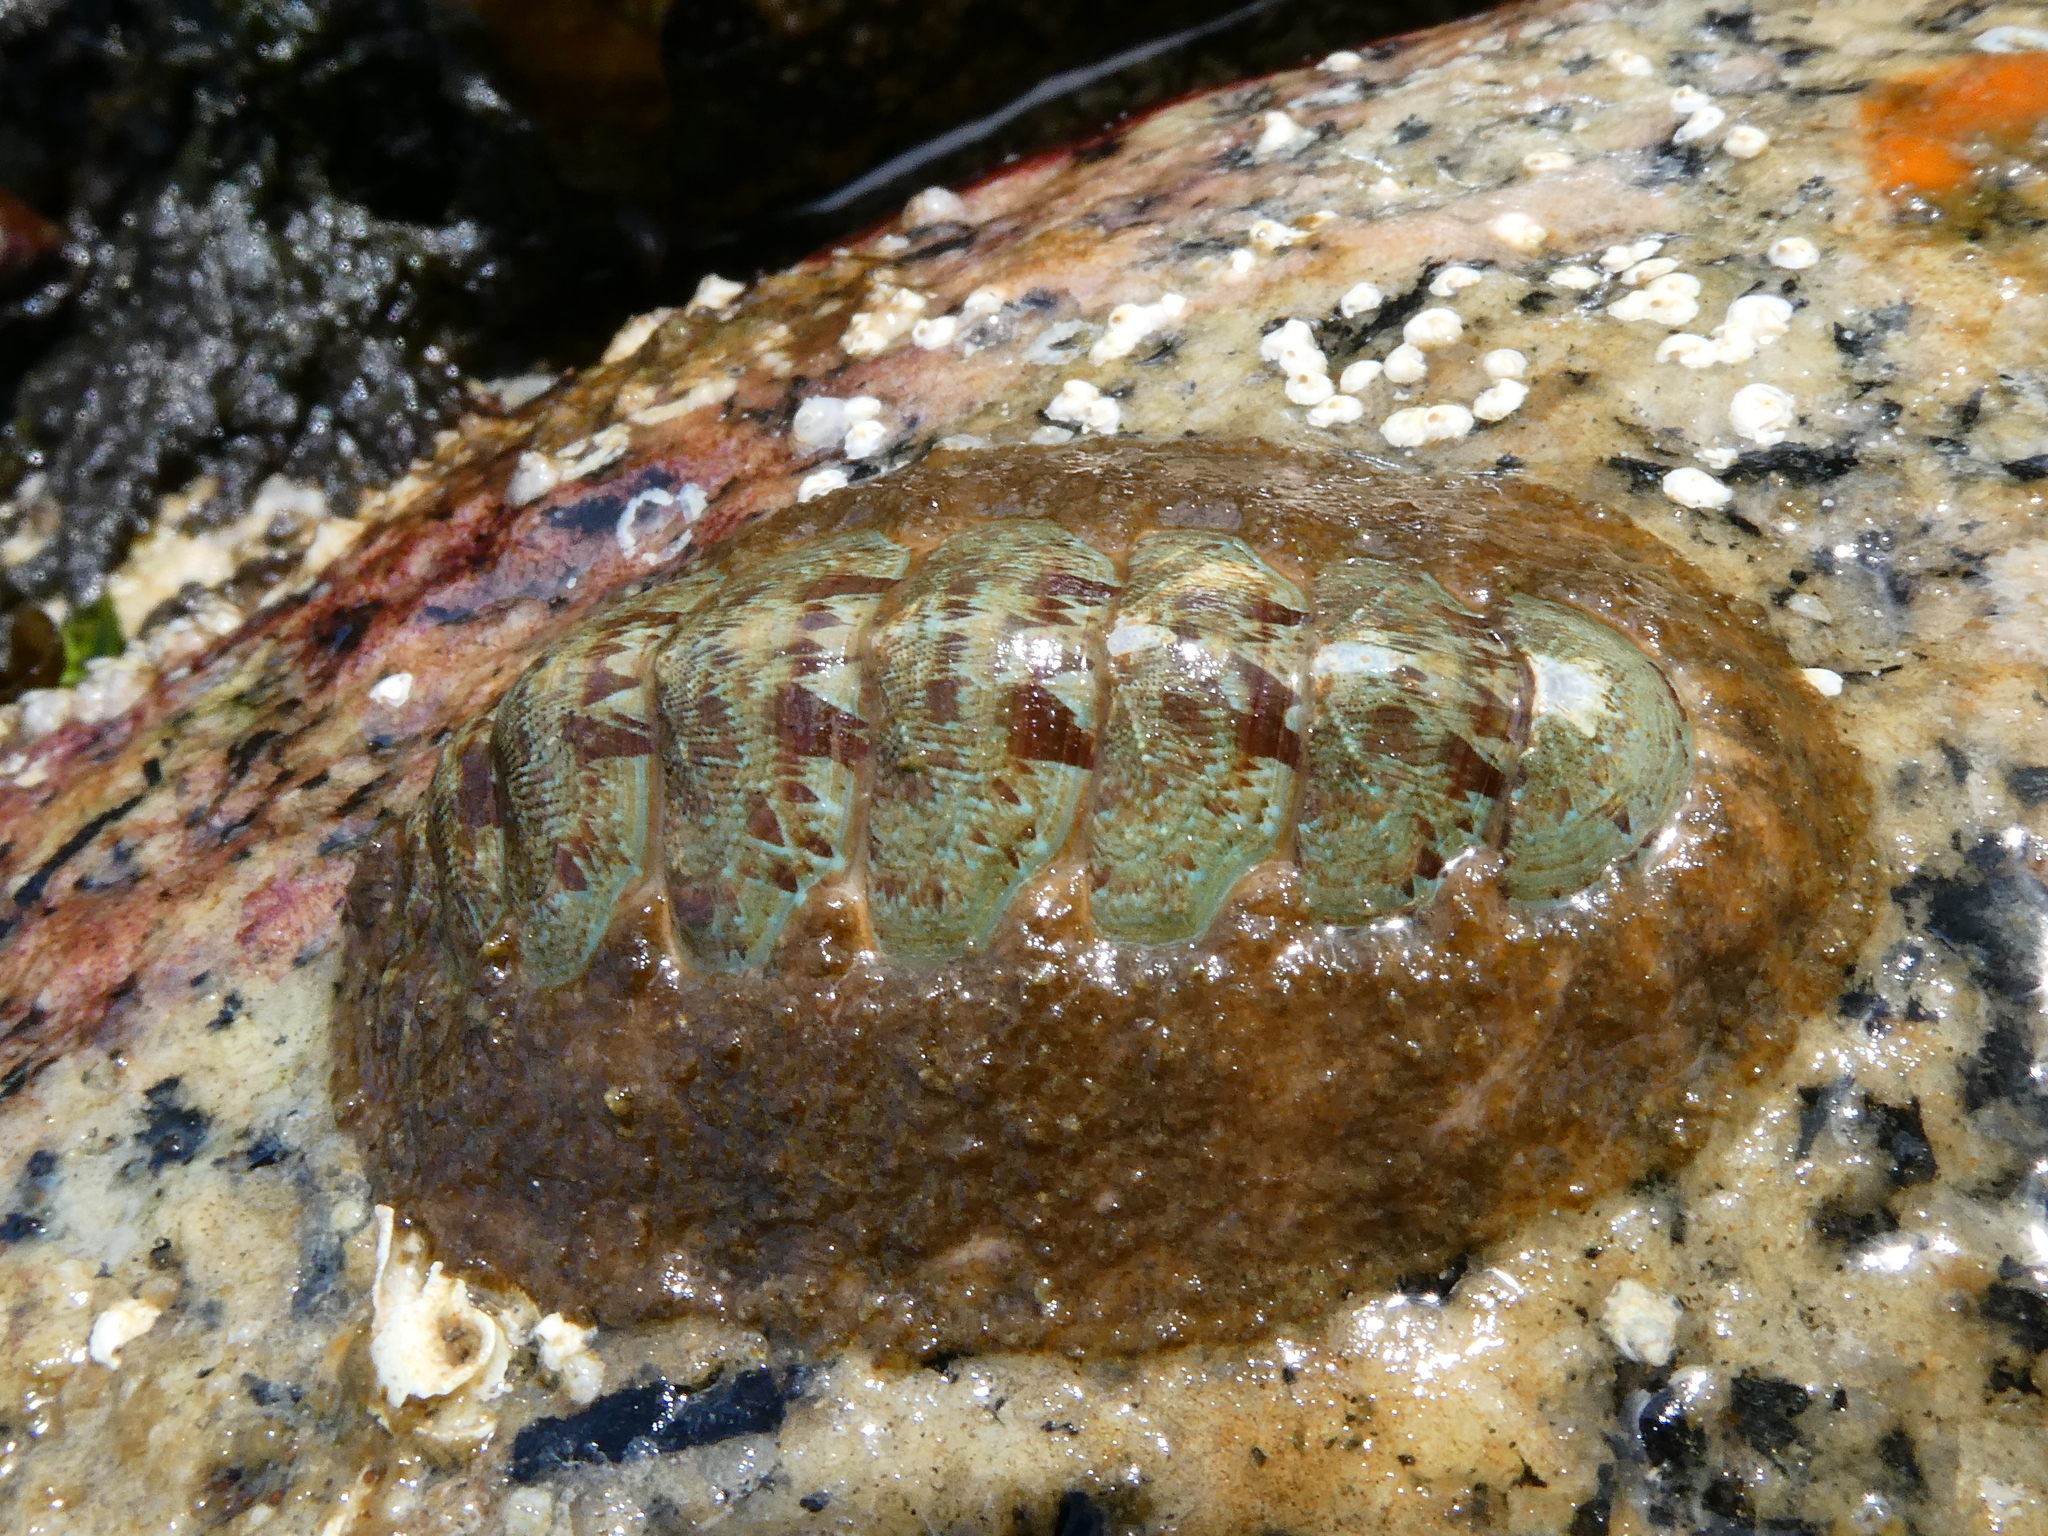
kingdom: Animalia
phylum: Mollusca
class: Polyplacophora
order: Chitonida
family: Mopaliidae
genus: Mopalia
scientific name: Mopalia spectabilis
